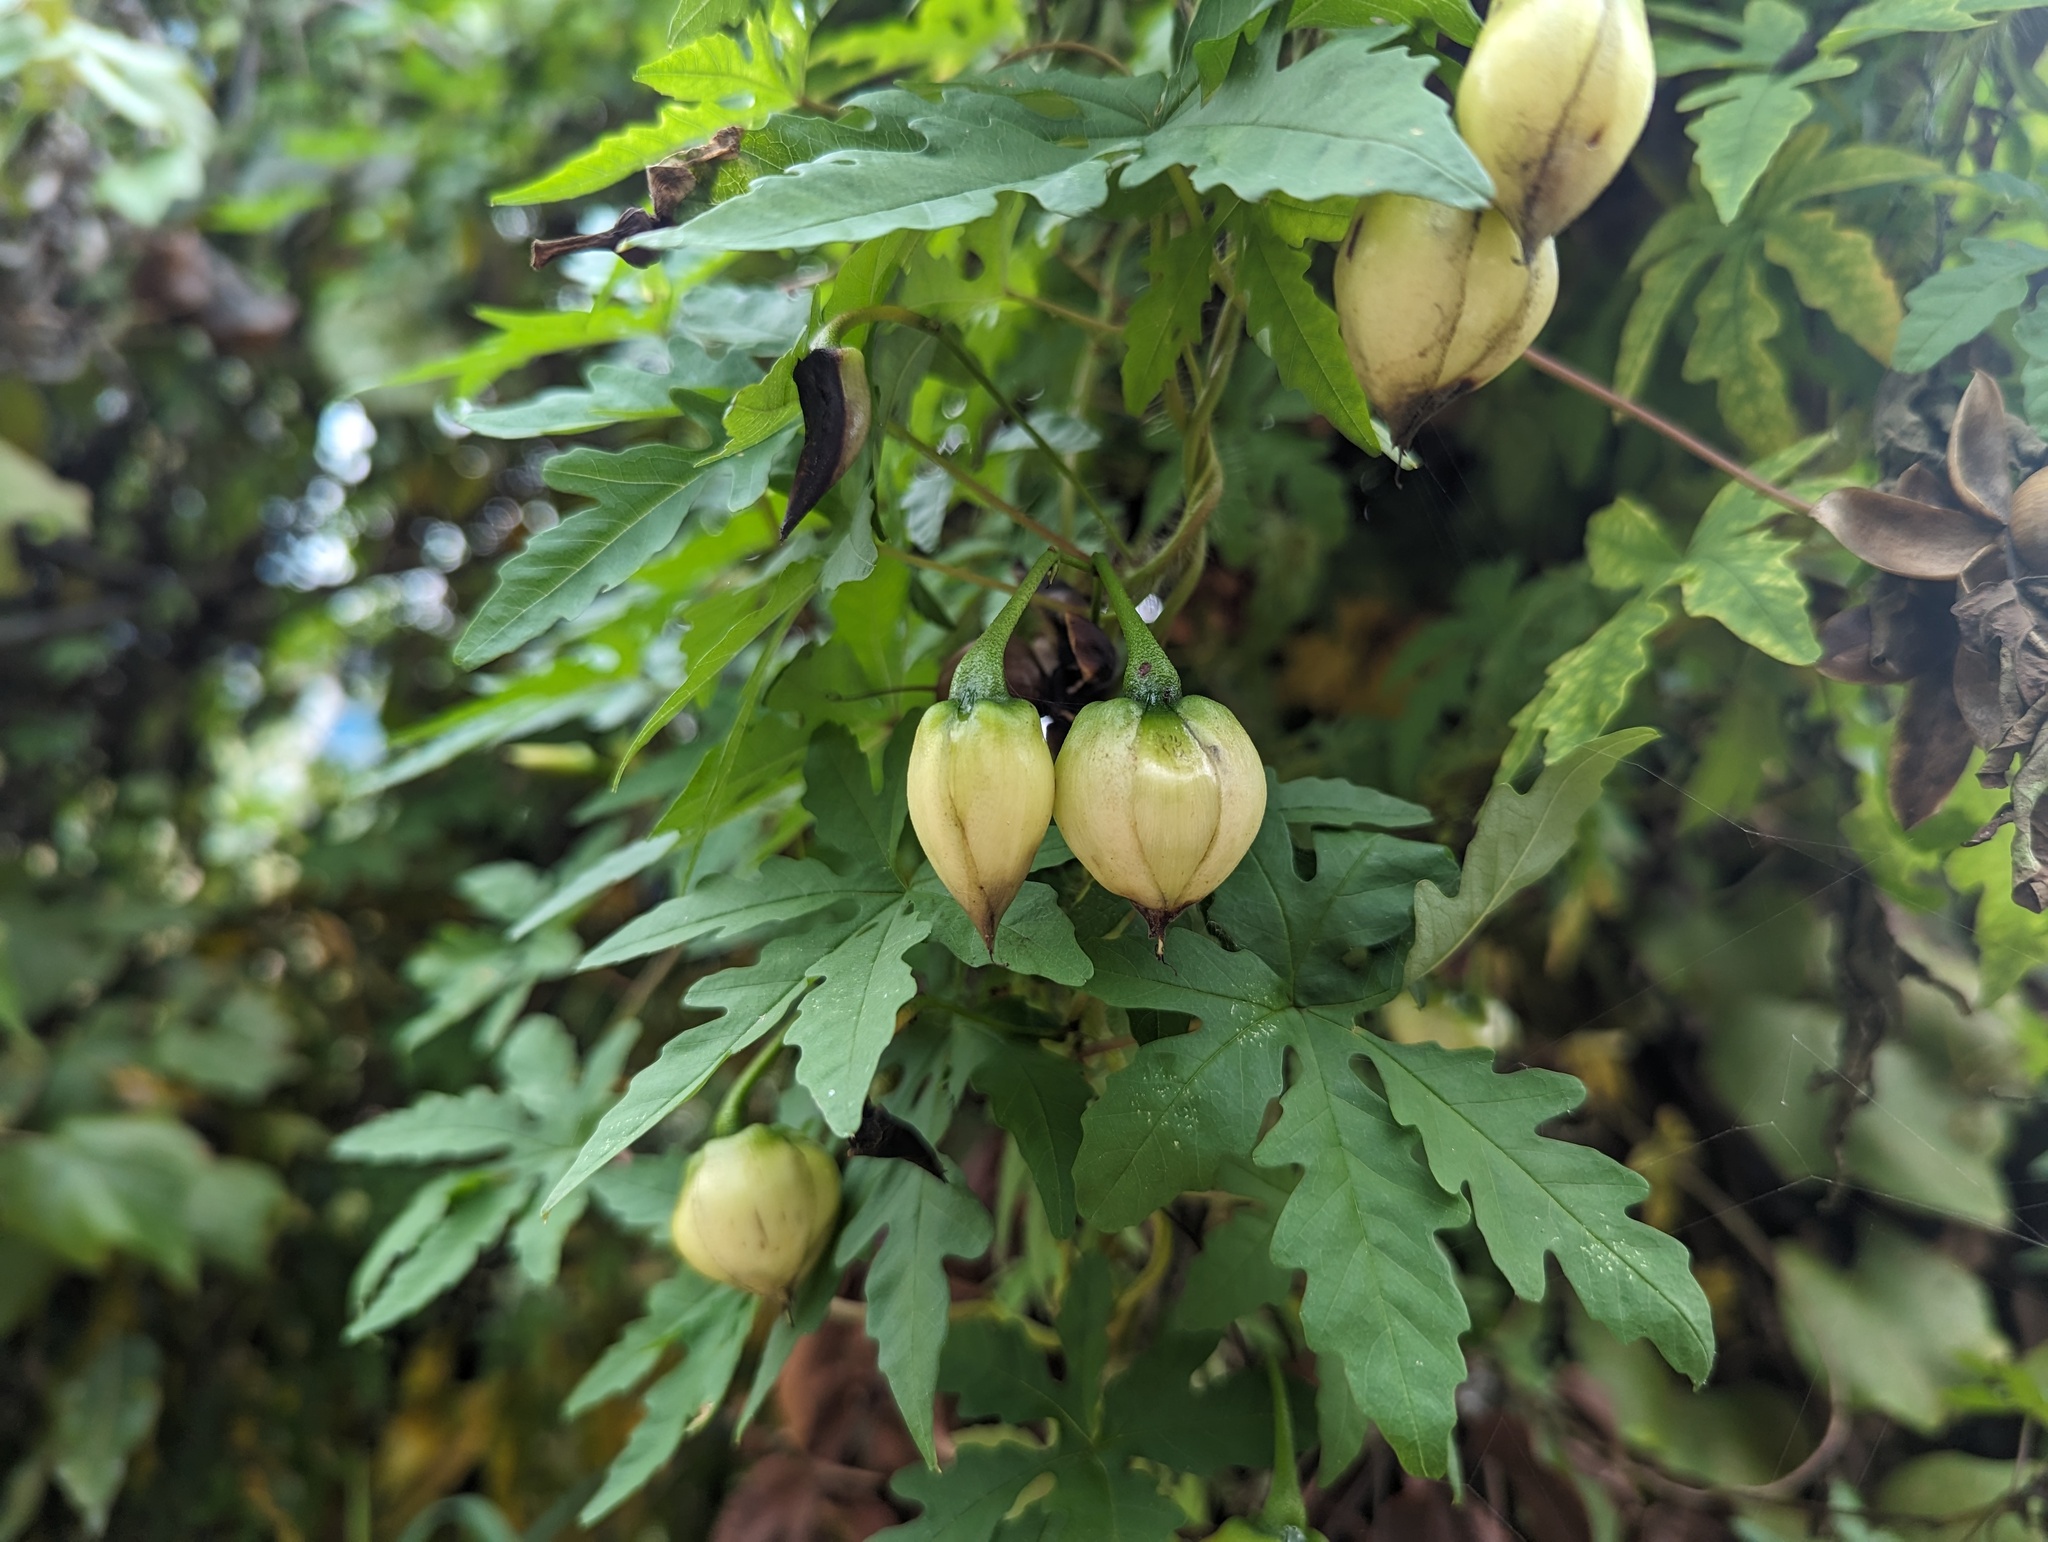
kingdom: Plantae
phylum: Tracheophyta
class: Magnoliopsida
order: Solanales
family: Convolvulaceae
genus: Distimake
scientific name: Distimake dissectus
